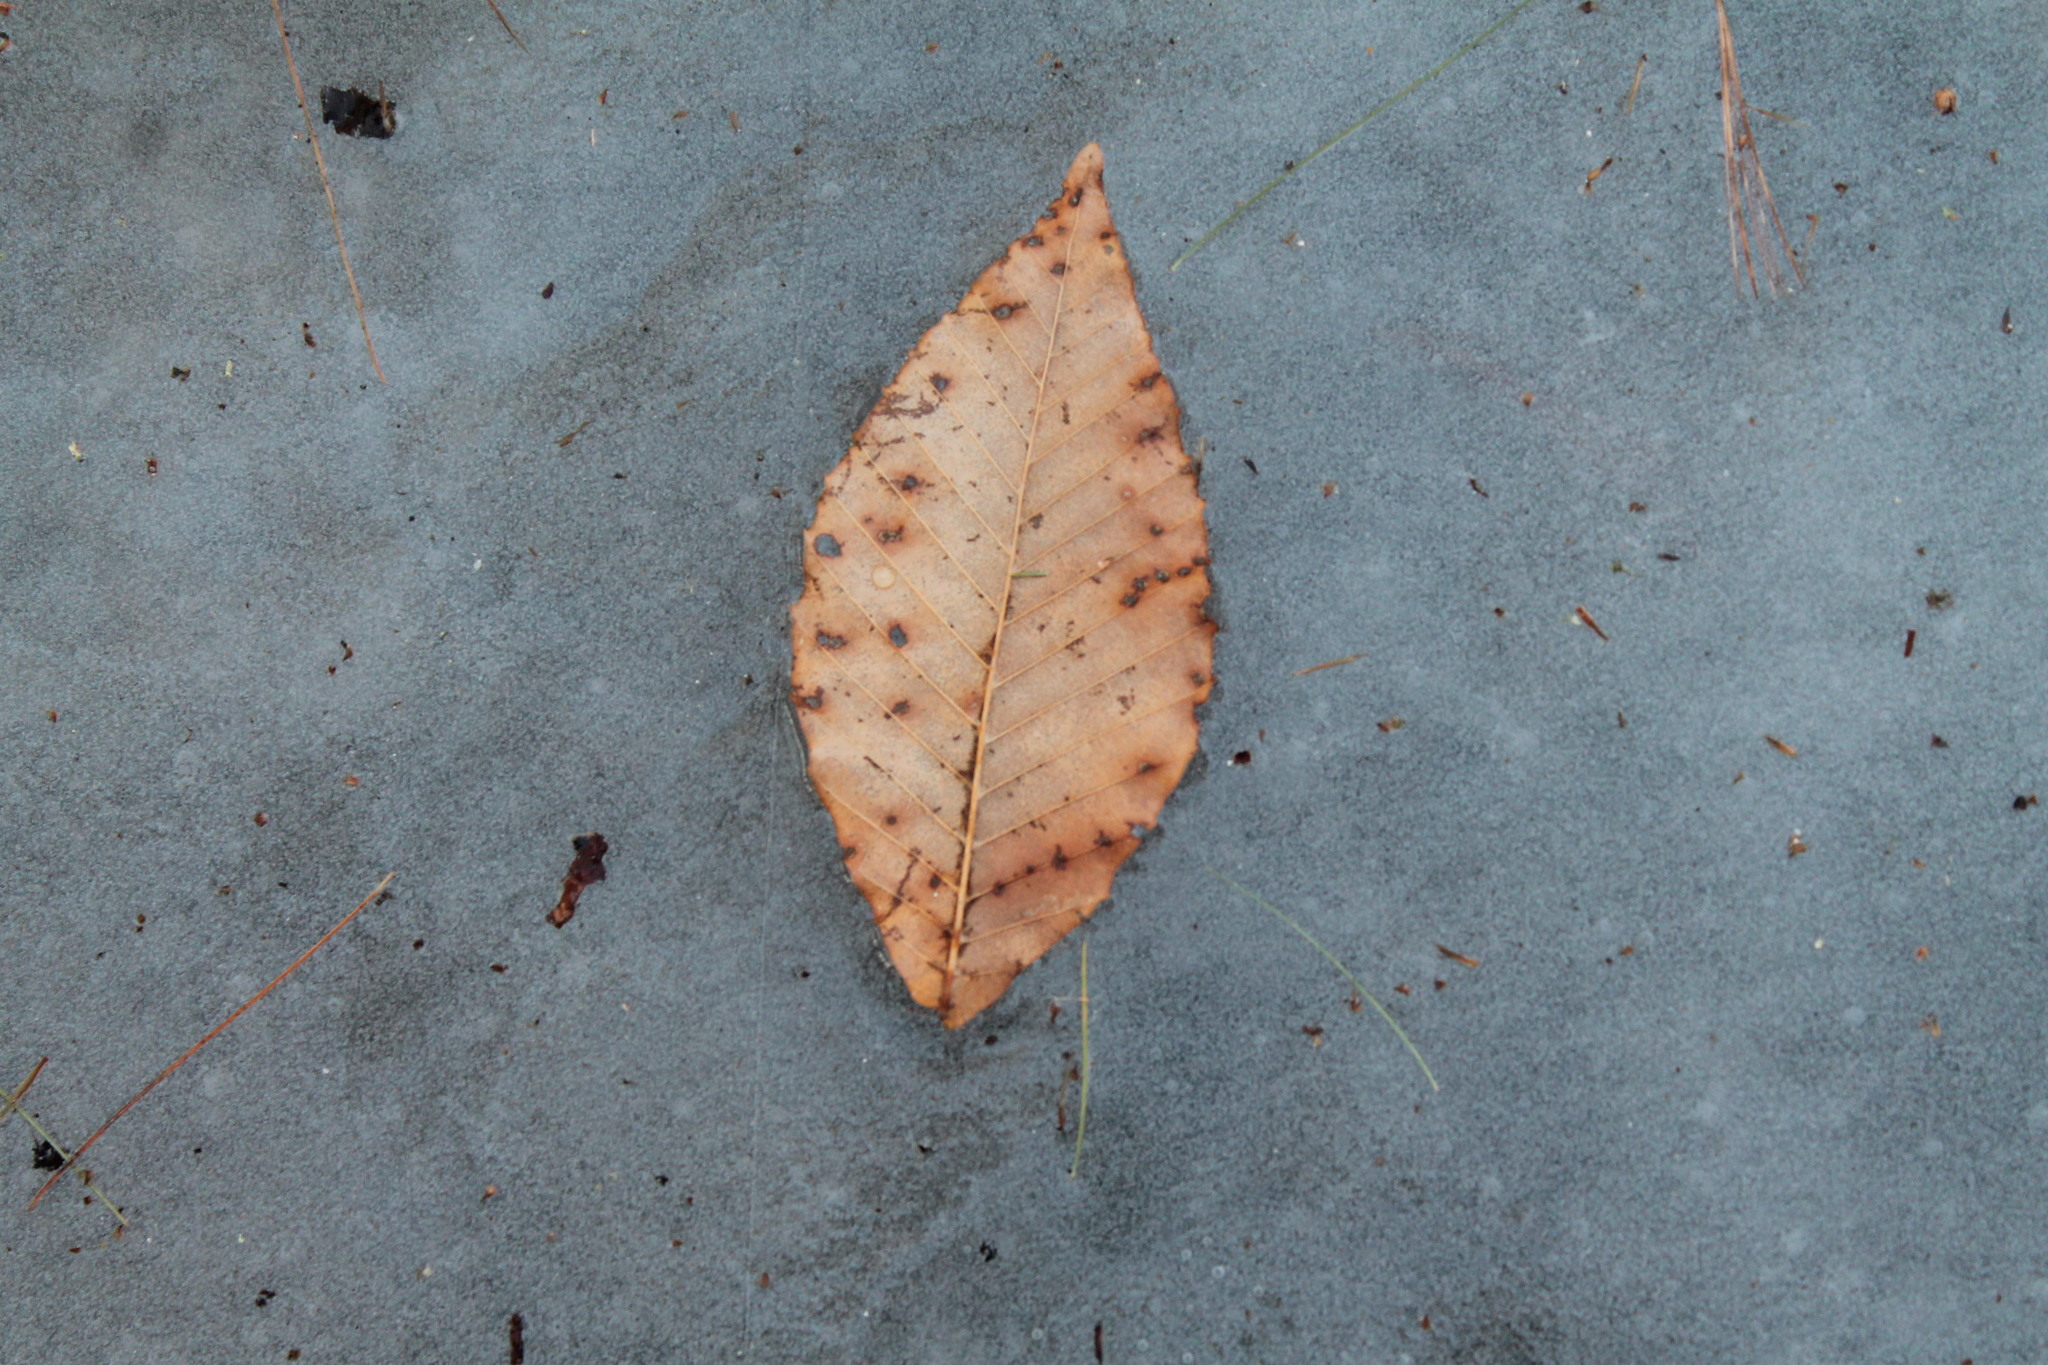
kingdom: Plantae
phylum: Tracheophyta
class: Magnoliopsida
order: Fagales
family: Fagaceae
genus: Fagus
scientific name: Fagus grandifolia
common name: American beech
